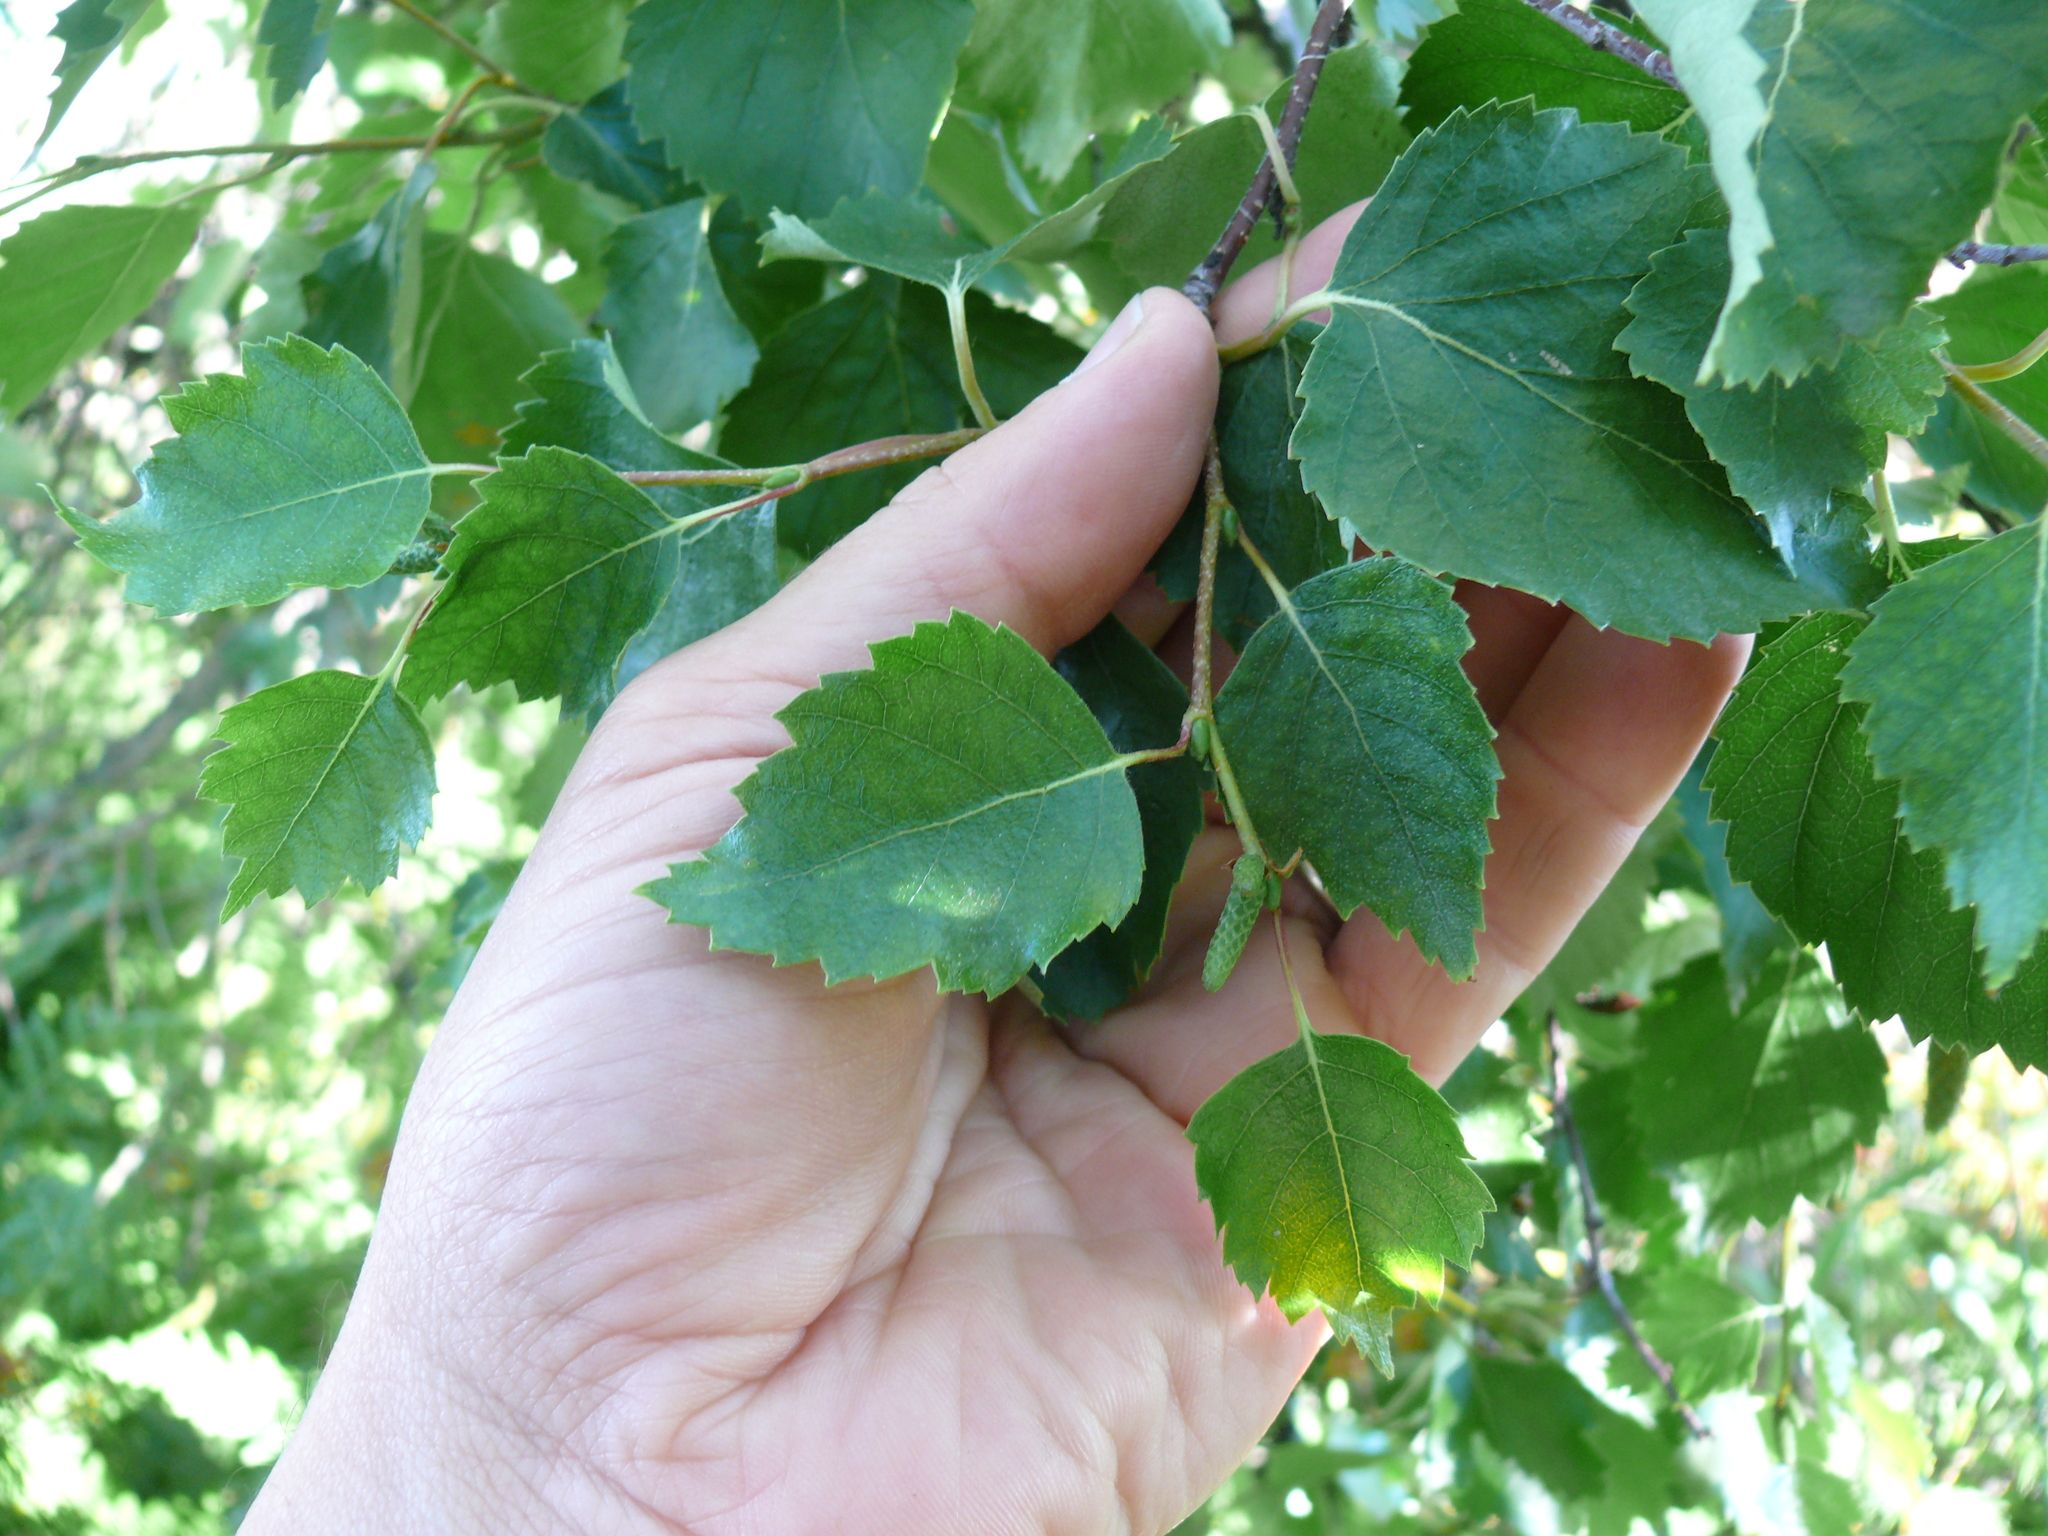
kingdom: Plantae
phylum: Tracheophyta
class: Magnoliopsida
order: Fagales
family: Betulaceae
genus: Betula
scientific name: Betula papyrifera
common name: Paper birch
